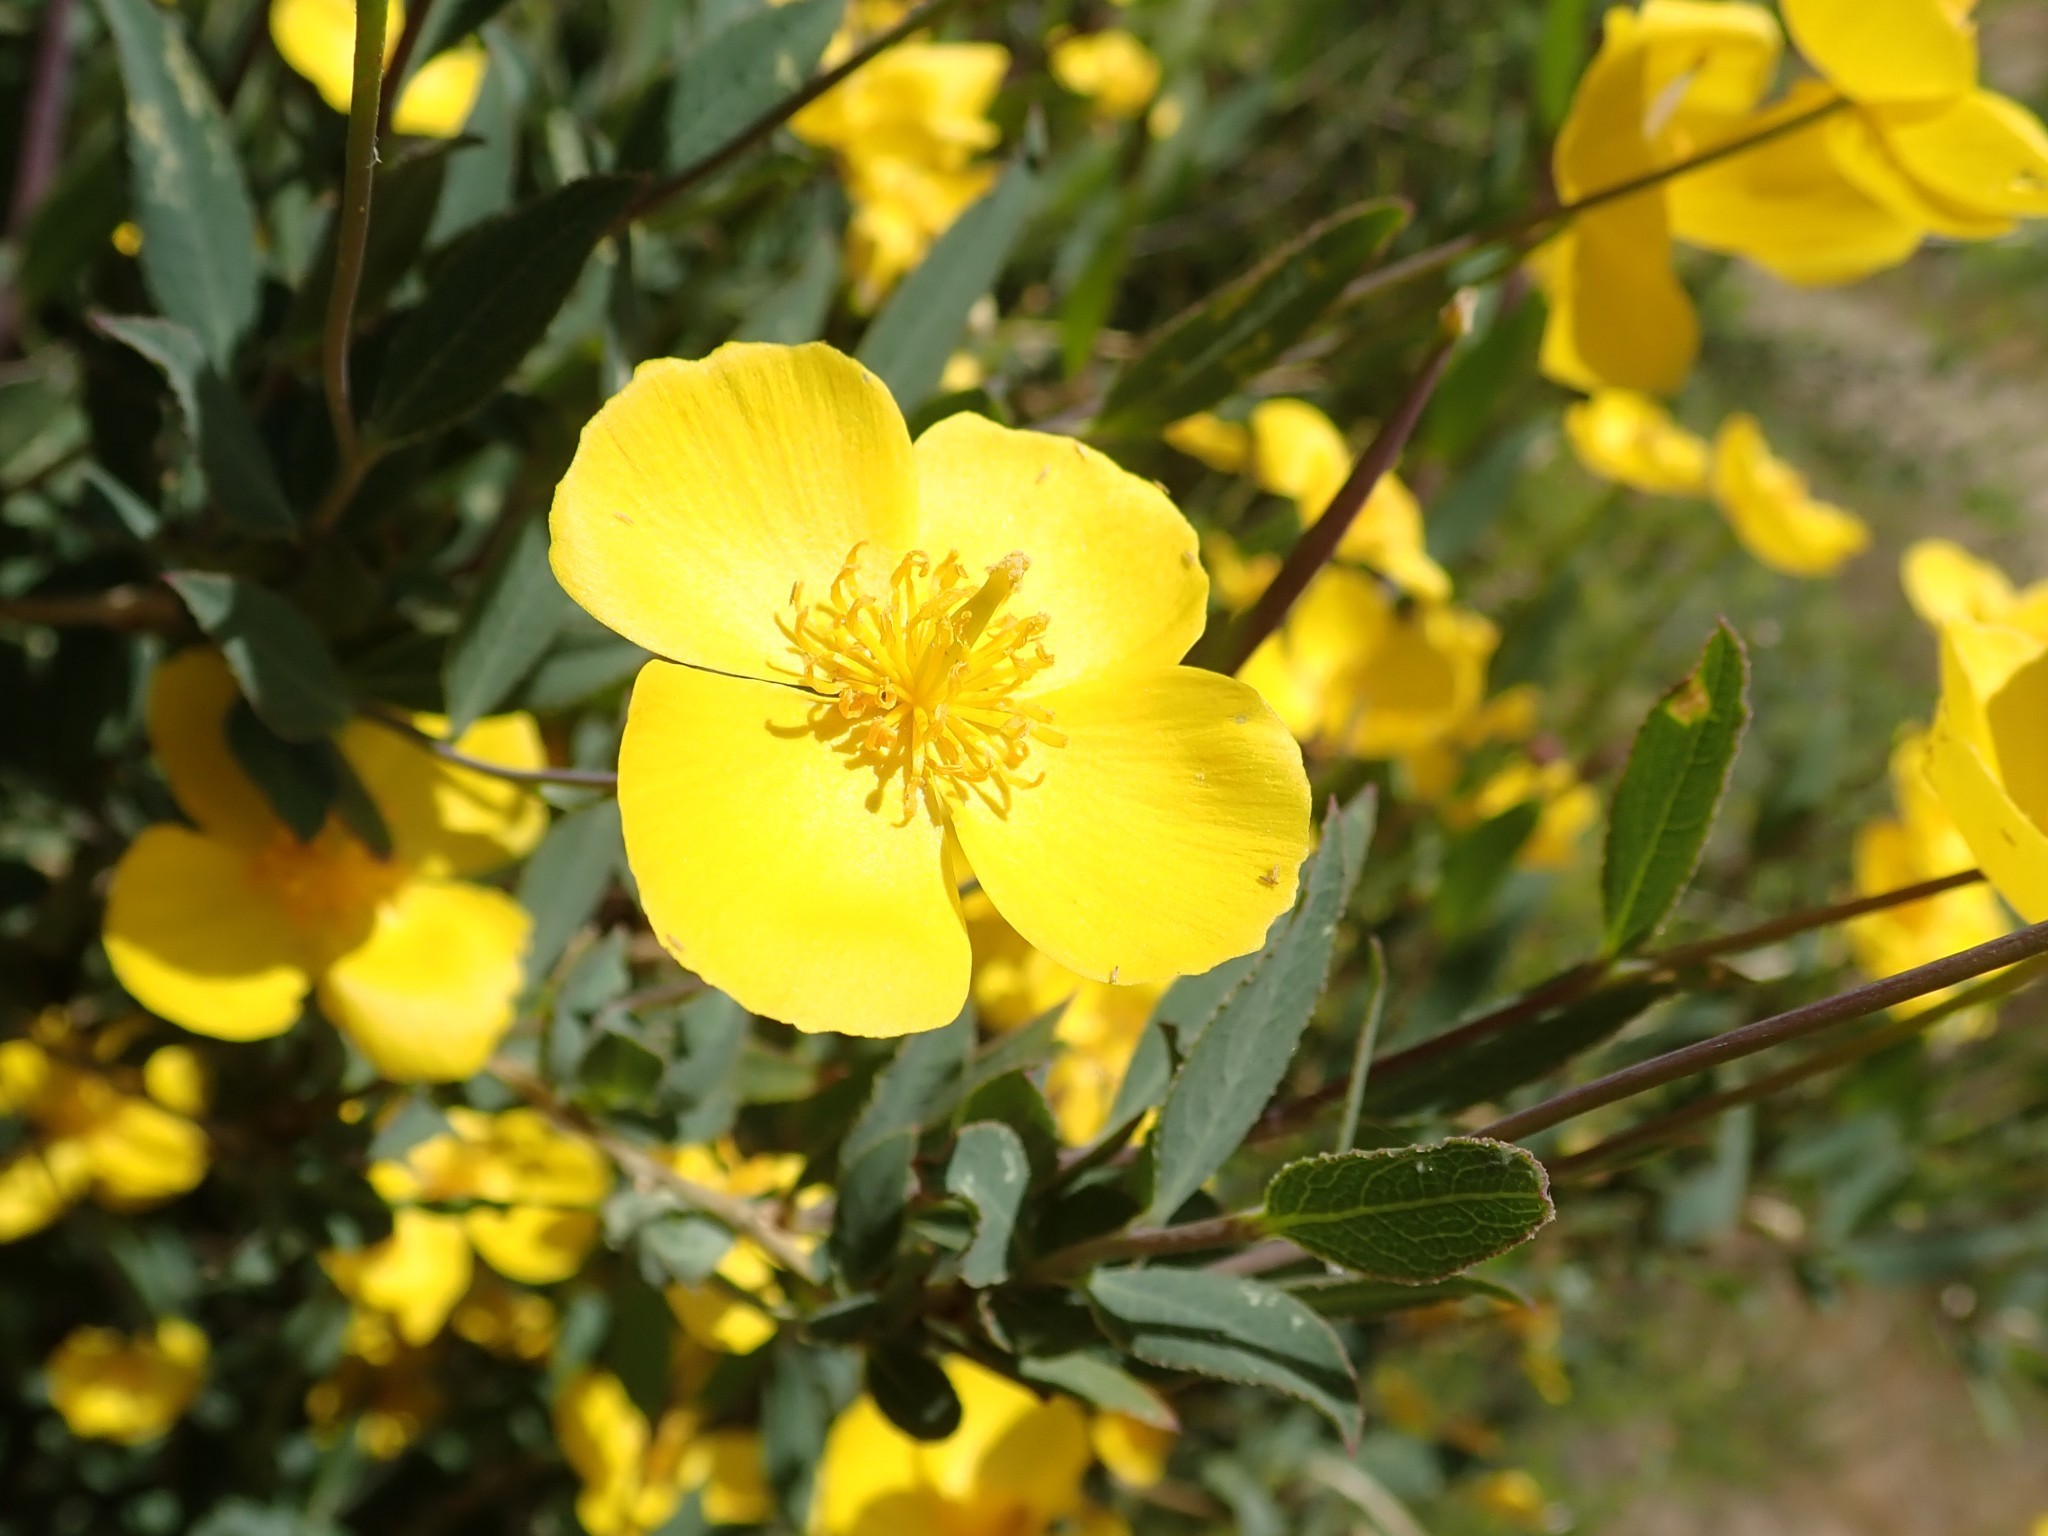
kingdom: Plantae
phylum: Tracheophyta
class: Magnoliopsida
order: Ranunculales
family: Papaveraceae
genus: Dendromecon
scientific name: Dendromecon rigida
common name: Tree poppy
